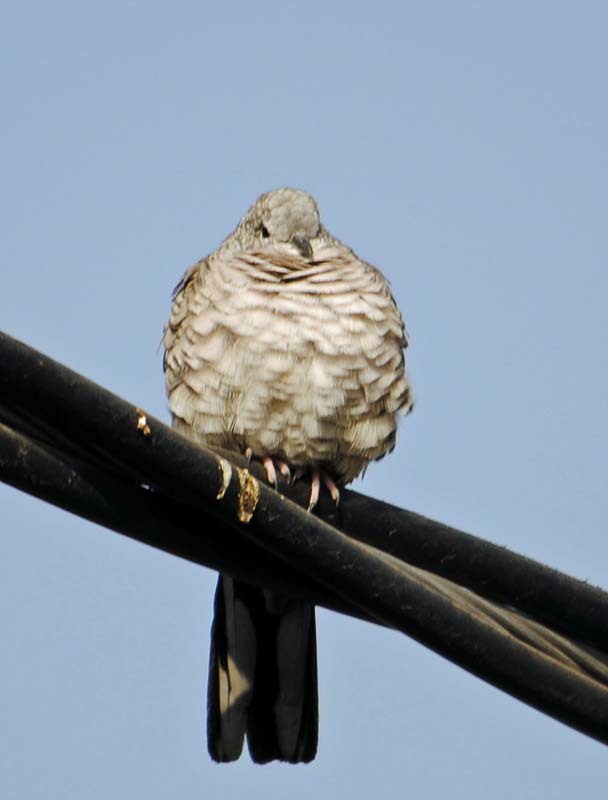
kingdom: Animalia
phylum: Chordata
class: Aves
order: Columbiformes
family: Columbidae
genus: Columbina
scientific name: Columbina inca
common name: Inca dove
